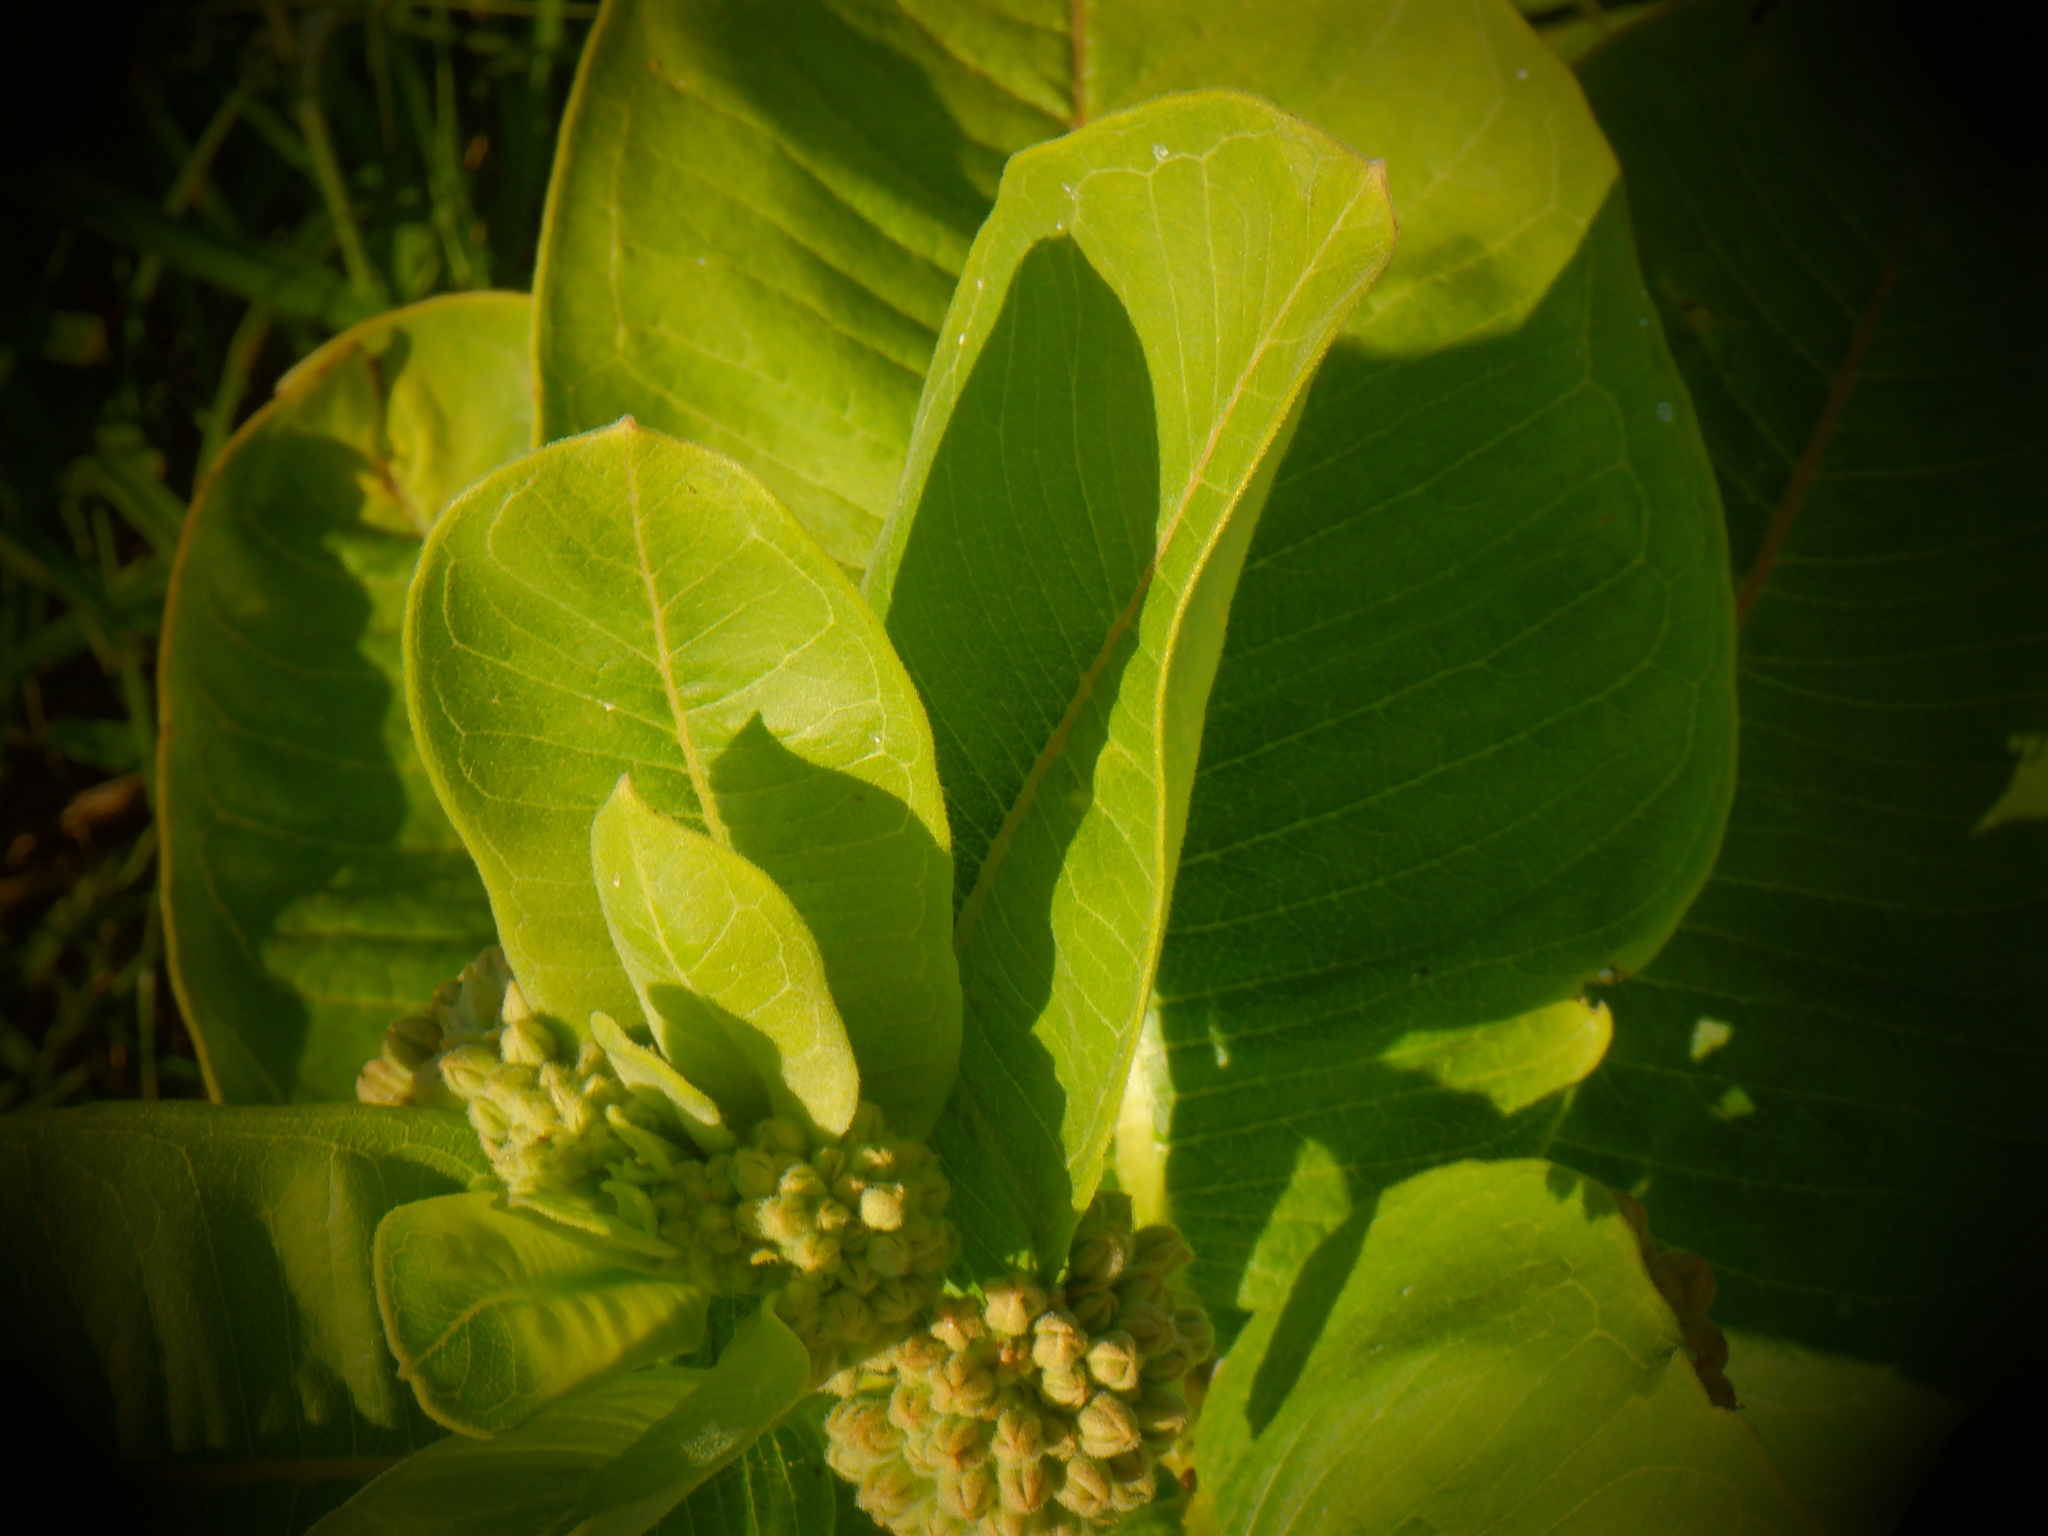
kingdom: Plantae
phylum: Tracheophyta
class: Magnoliopsida
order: Gentianales
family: Apocynaceae
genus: Asclepias
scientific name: Asclepias syriaca
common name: Common milkweed
